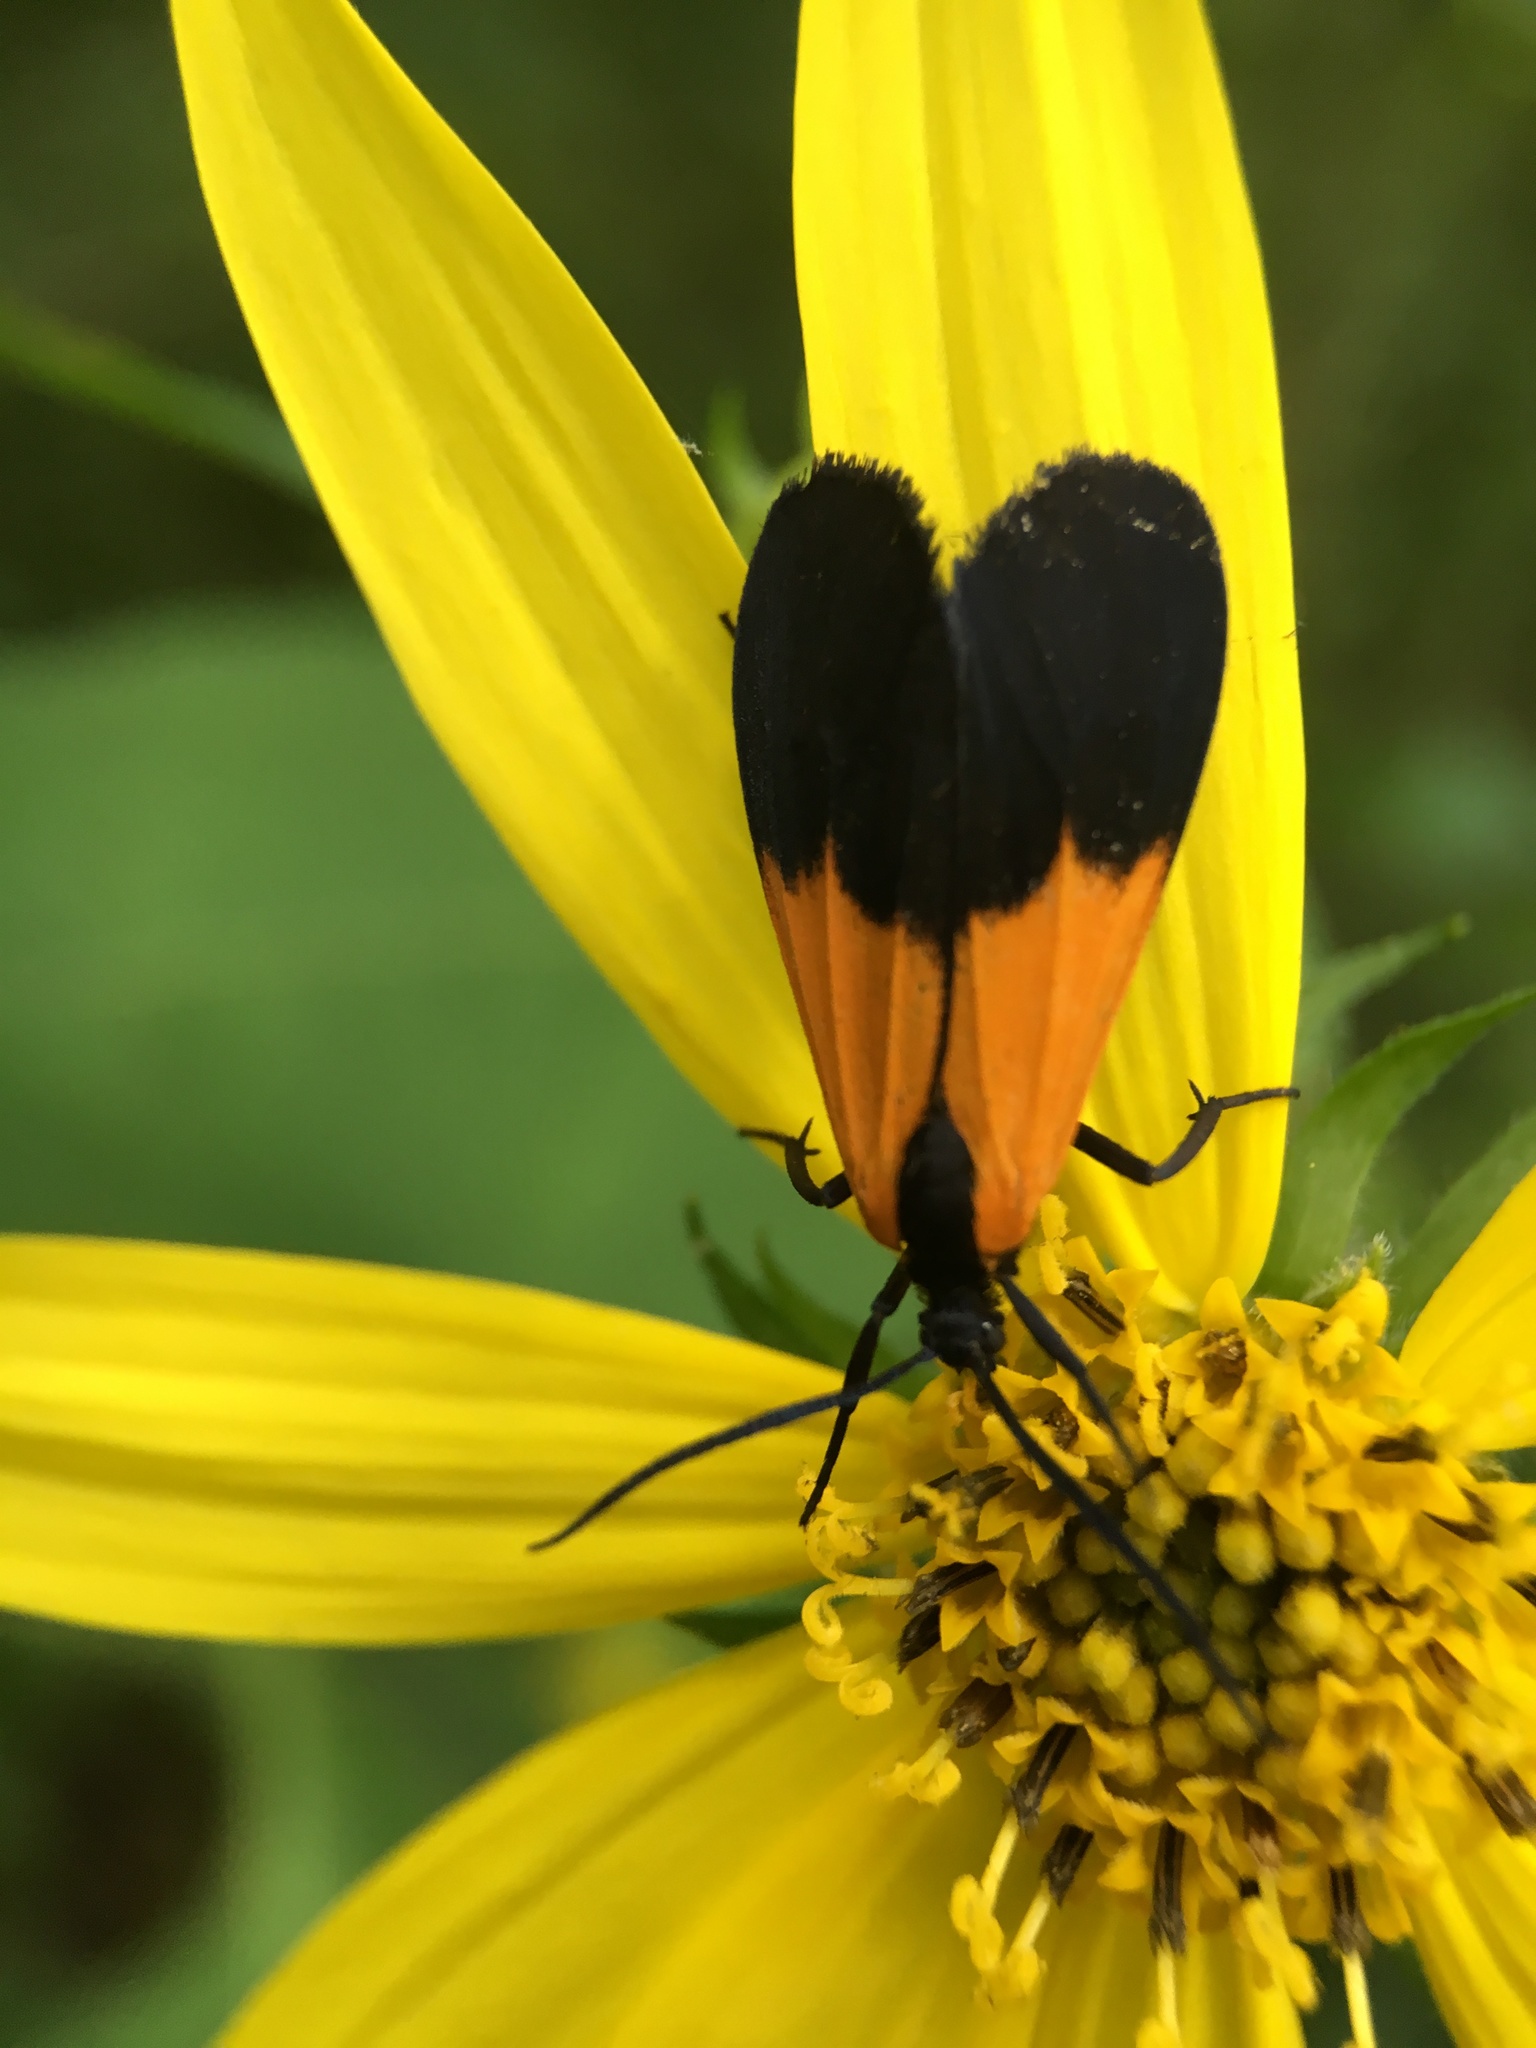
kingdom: Animalia
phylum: Arthropoda
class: Insecta
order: Lepidoptera
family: Erebidae
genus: Lycomorpha
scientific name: Lycomorpha pholus
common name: Black-and-yellow lichen moth
